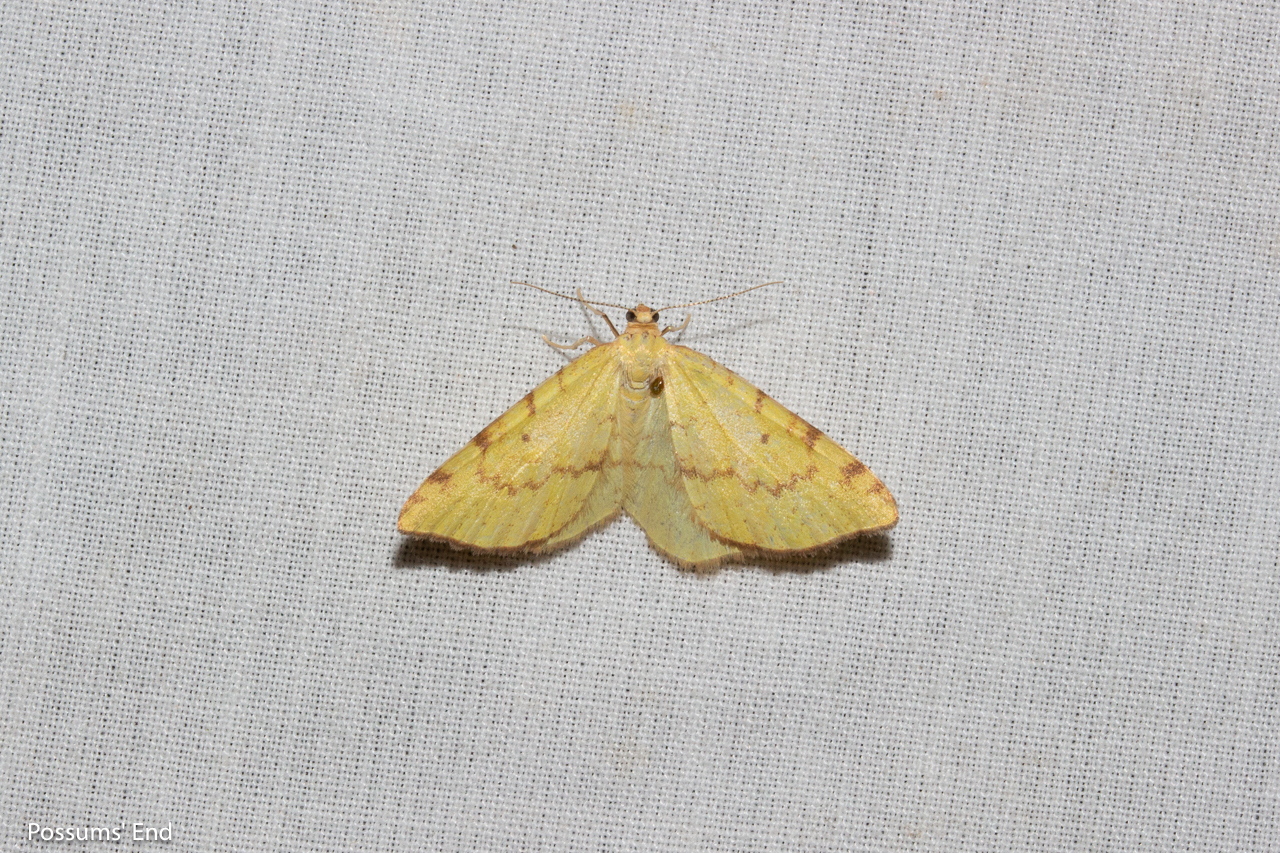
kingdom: Animalia
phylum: Arthropoda
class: Insecta
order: Lepidoptera
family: Geometridae
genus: Epiphryne
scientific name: Epiphryne undosata
